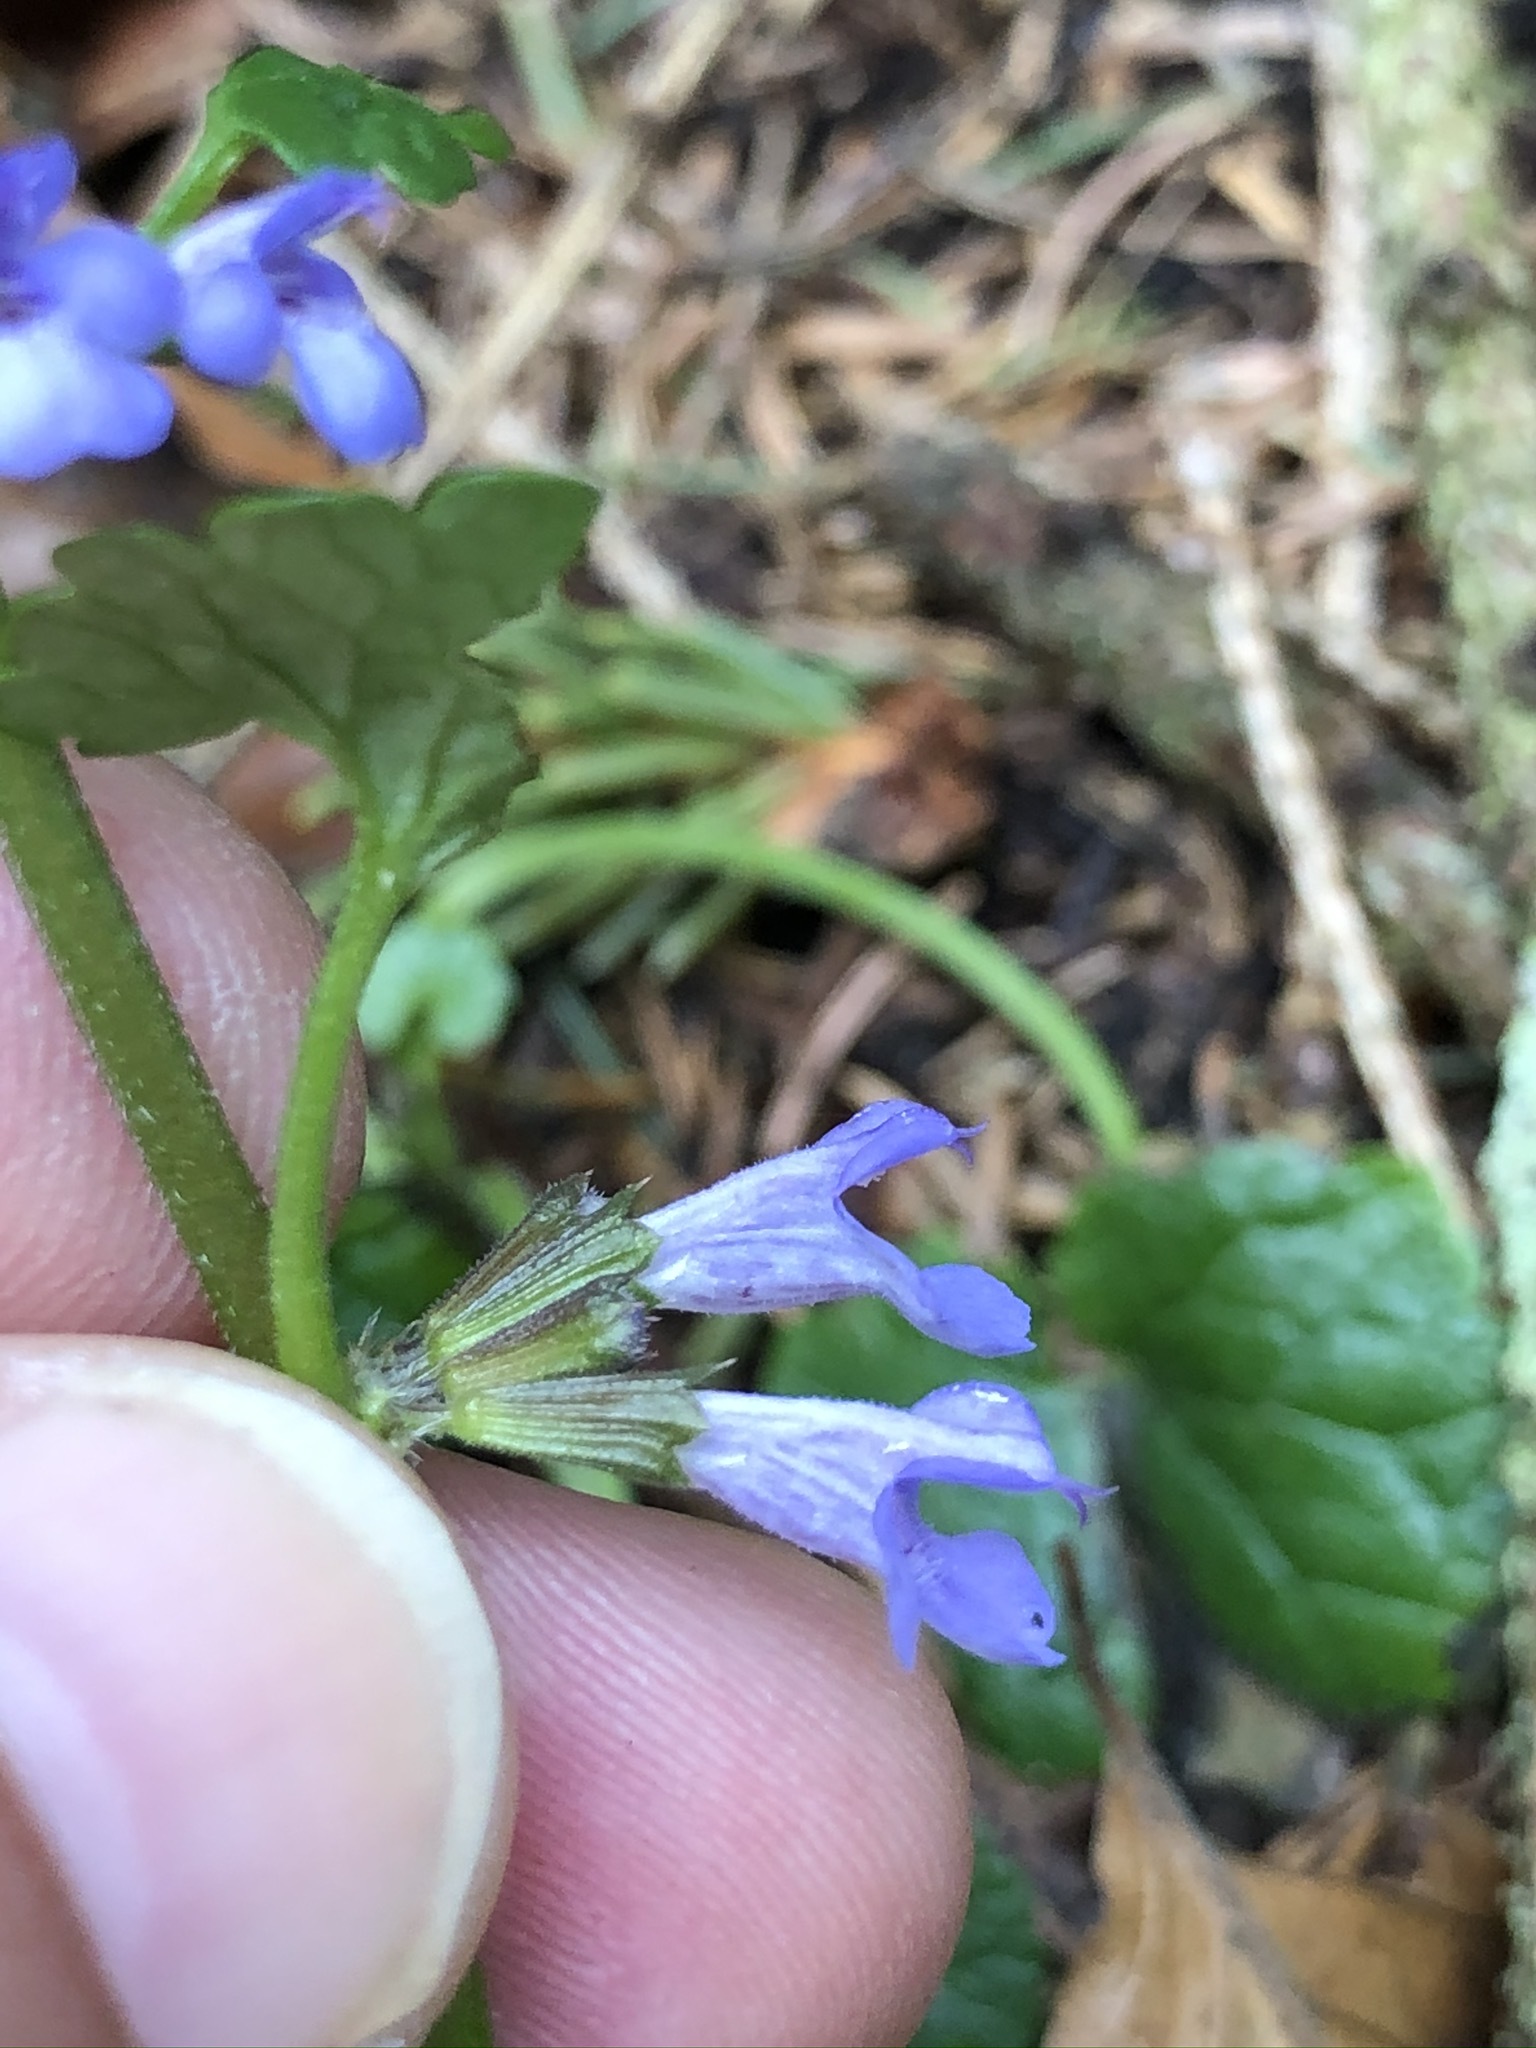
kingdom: Plantae
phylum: Tracheophyta
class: Magnoliopsida
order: Lamiales
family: Lamiaceae
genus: Glechoma
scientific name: Glechoma hederacea
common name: Ground ivy
